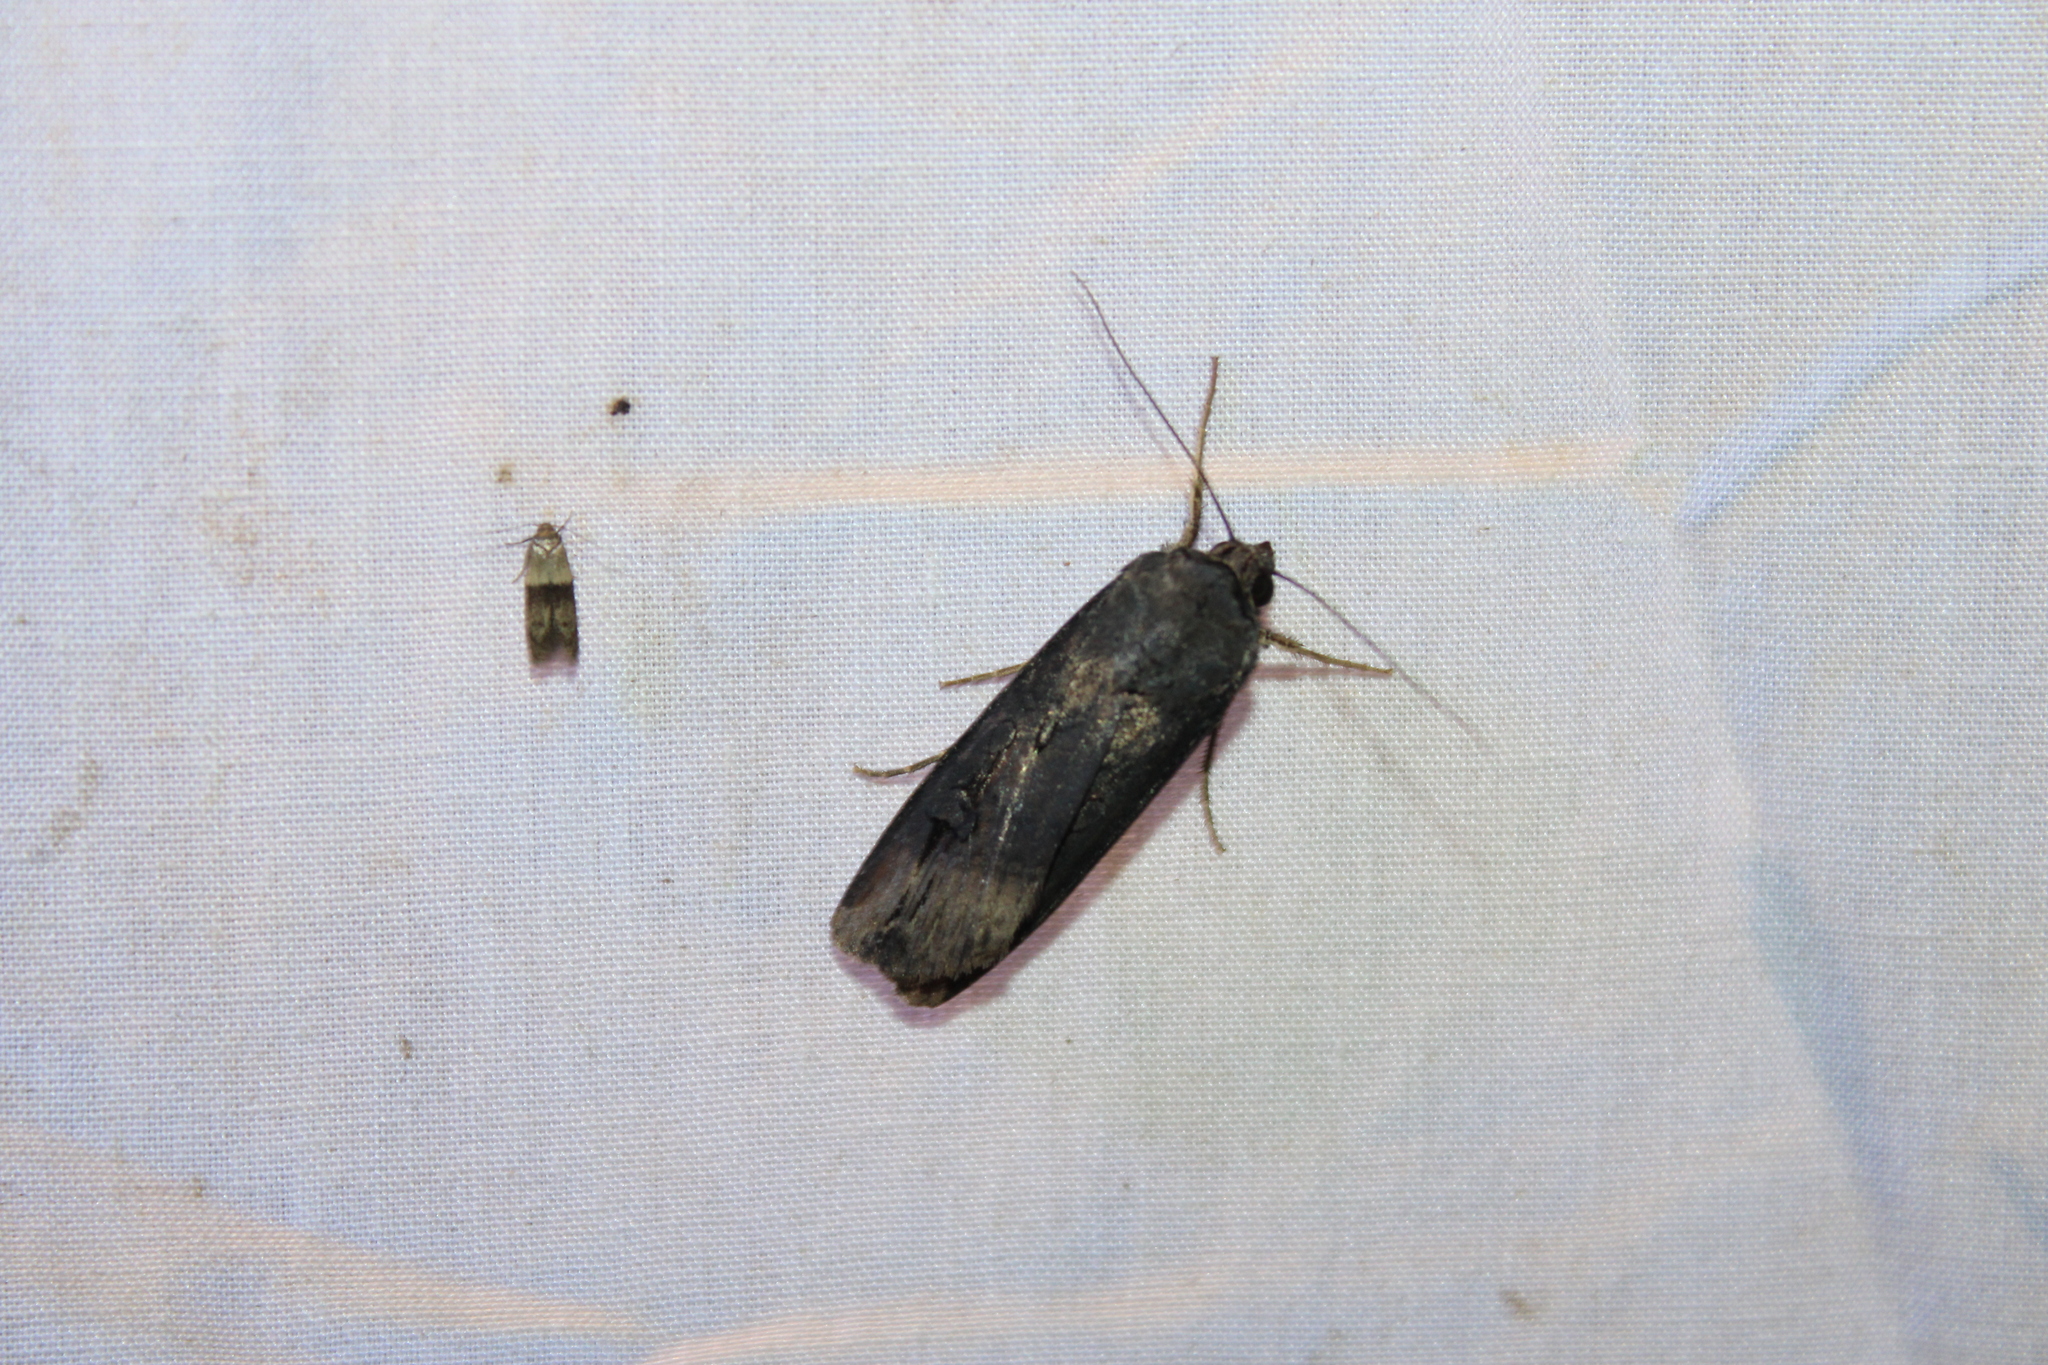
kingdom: Animalia
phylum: Arthropoda
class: Insecta
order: Lepidoptera
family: Noctuidae
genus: Agrotis
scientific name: Agrotis ipsilon
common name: Dark sword-grass
